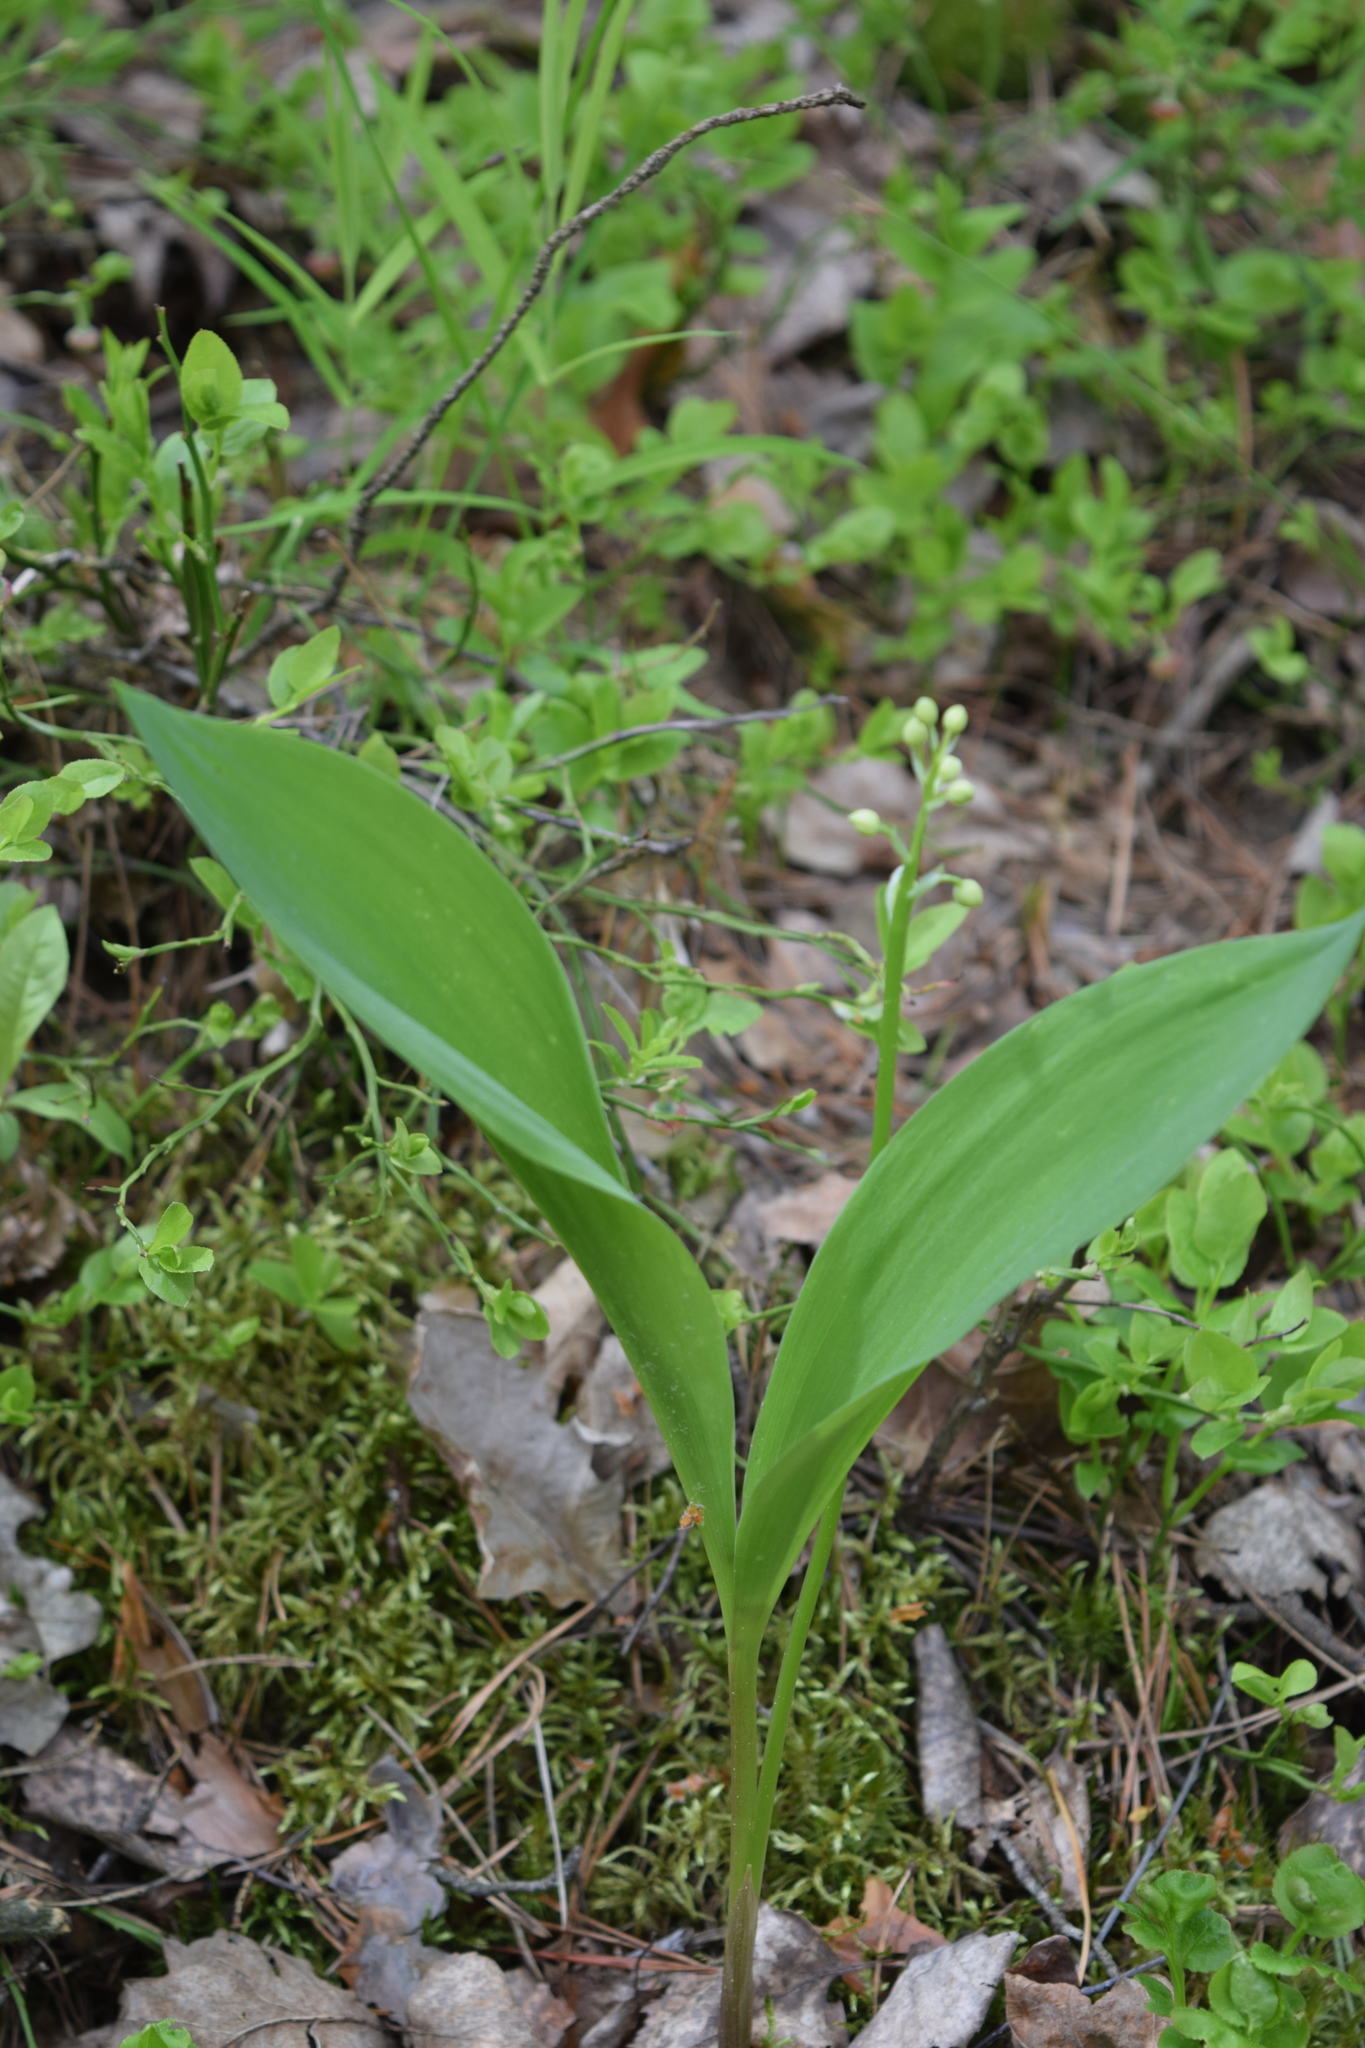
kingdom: Plantae
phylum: Tracheophyta
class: Liliopsida
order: Asparagales
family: Asparagaceae
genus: Convallaria
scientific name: Convallaria majalis
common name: Lily-of-the-valley
